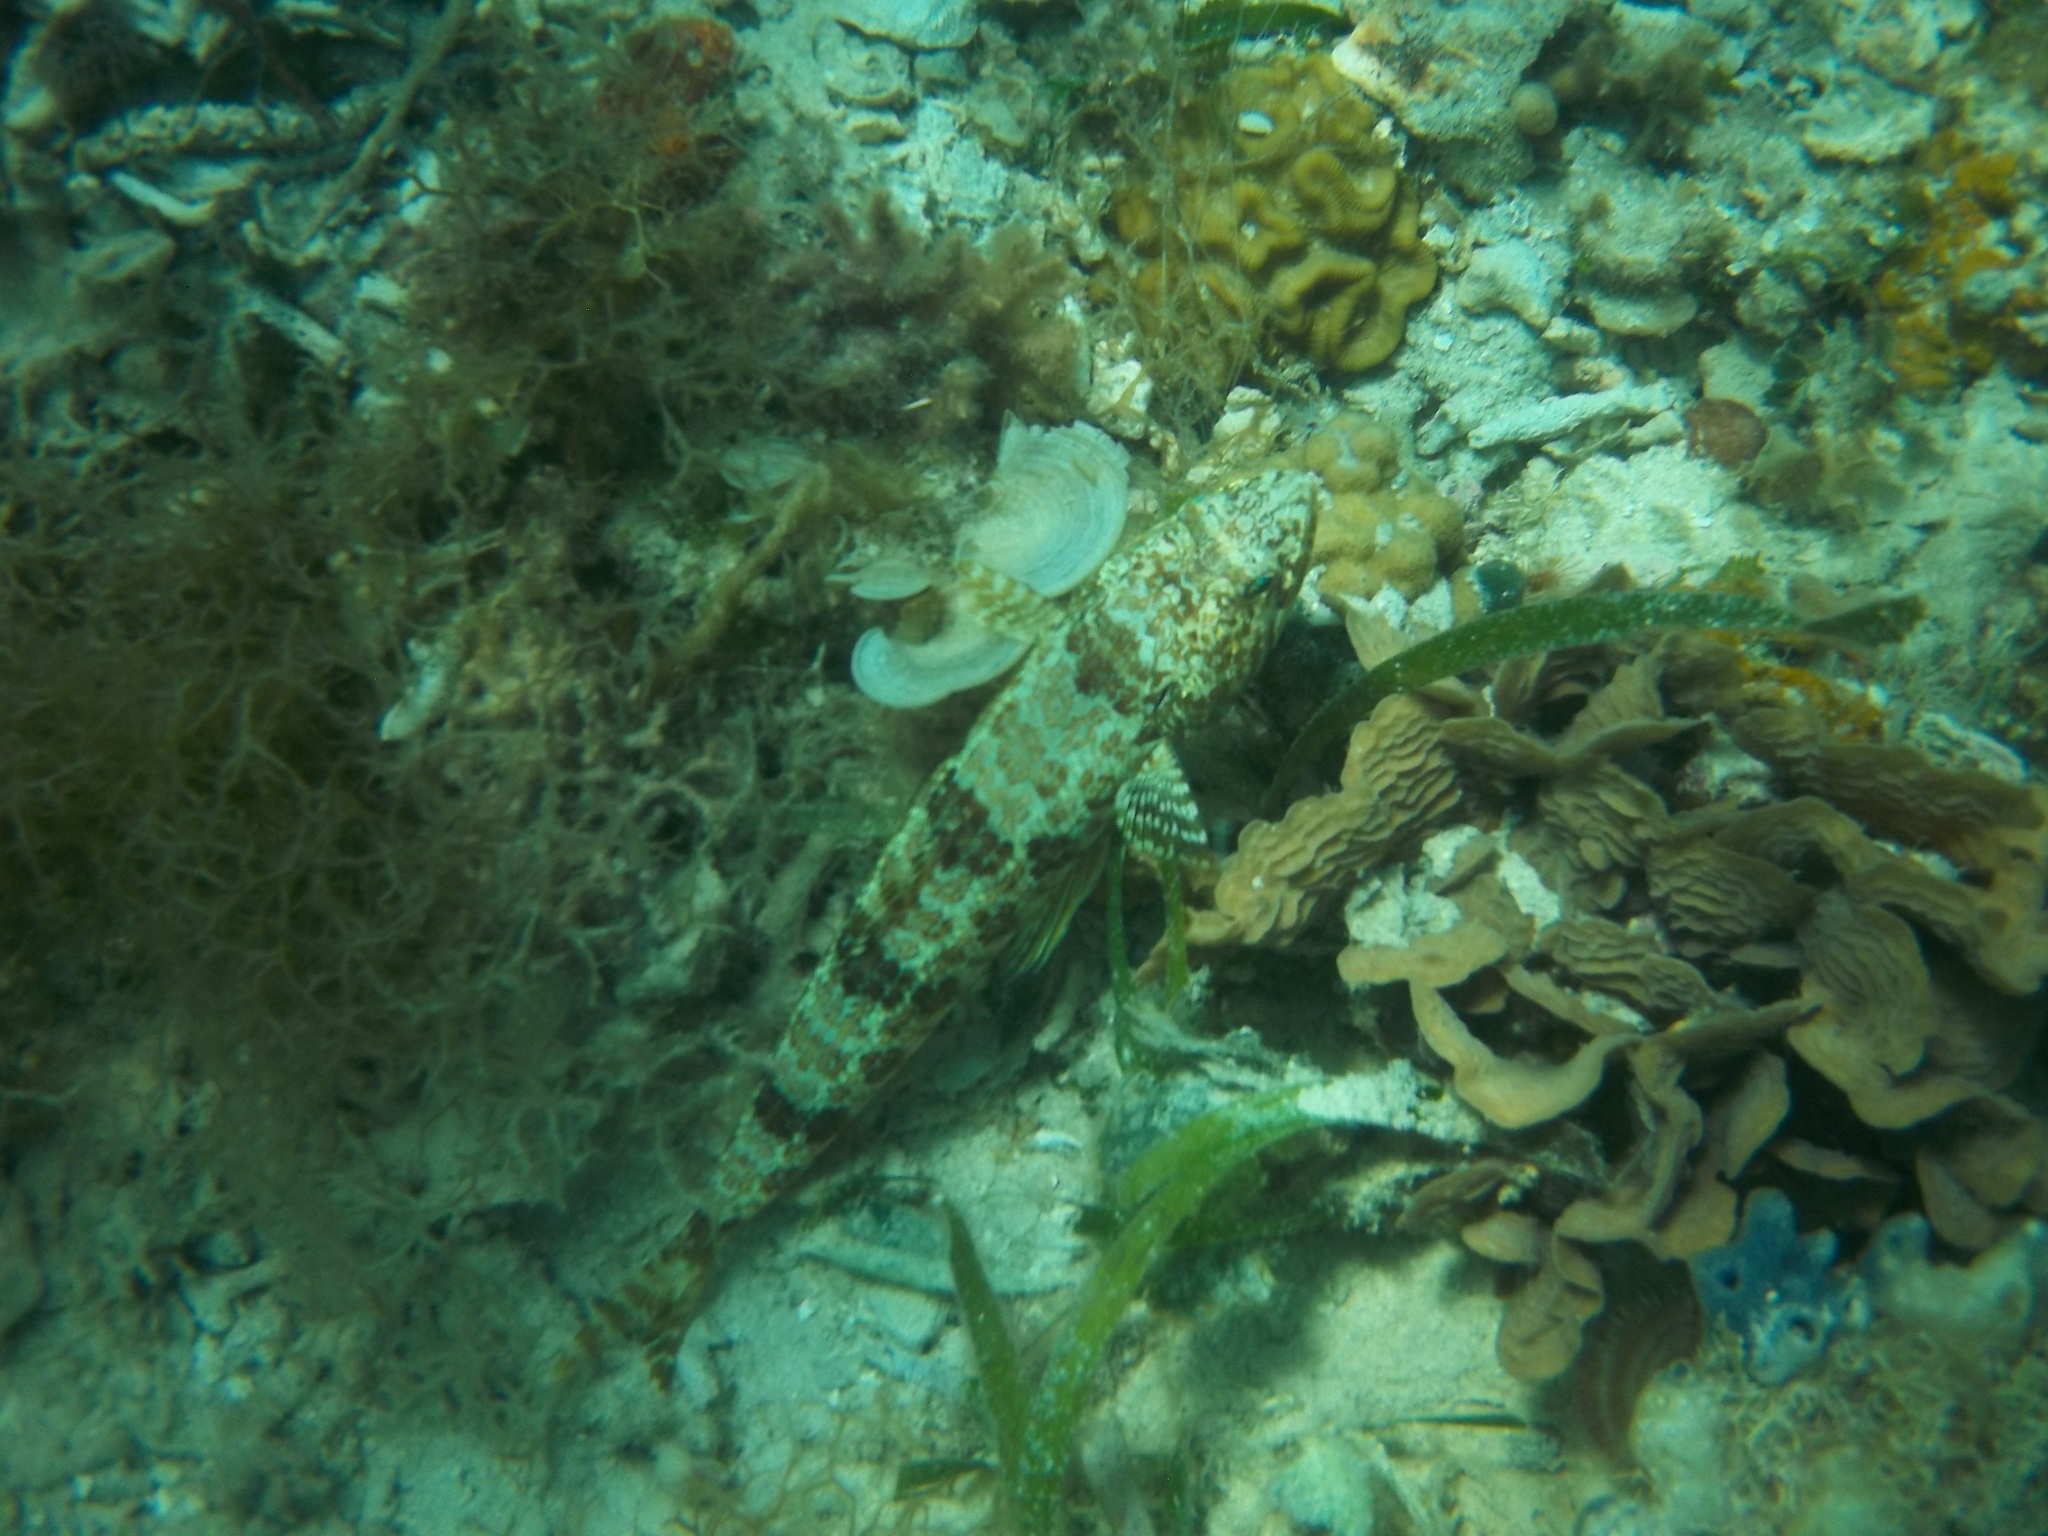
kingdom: Animalia
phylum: Chordata
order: Aulopiformes
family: Synodontidae
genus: Synodus
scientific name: Synodus intermedius
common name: Sand diver
